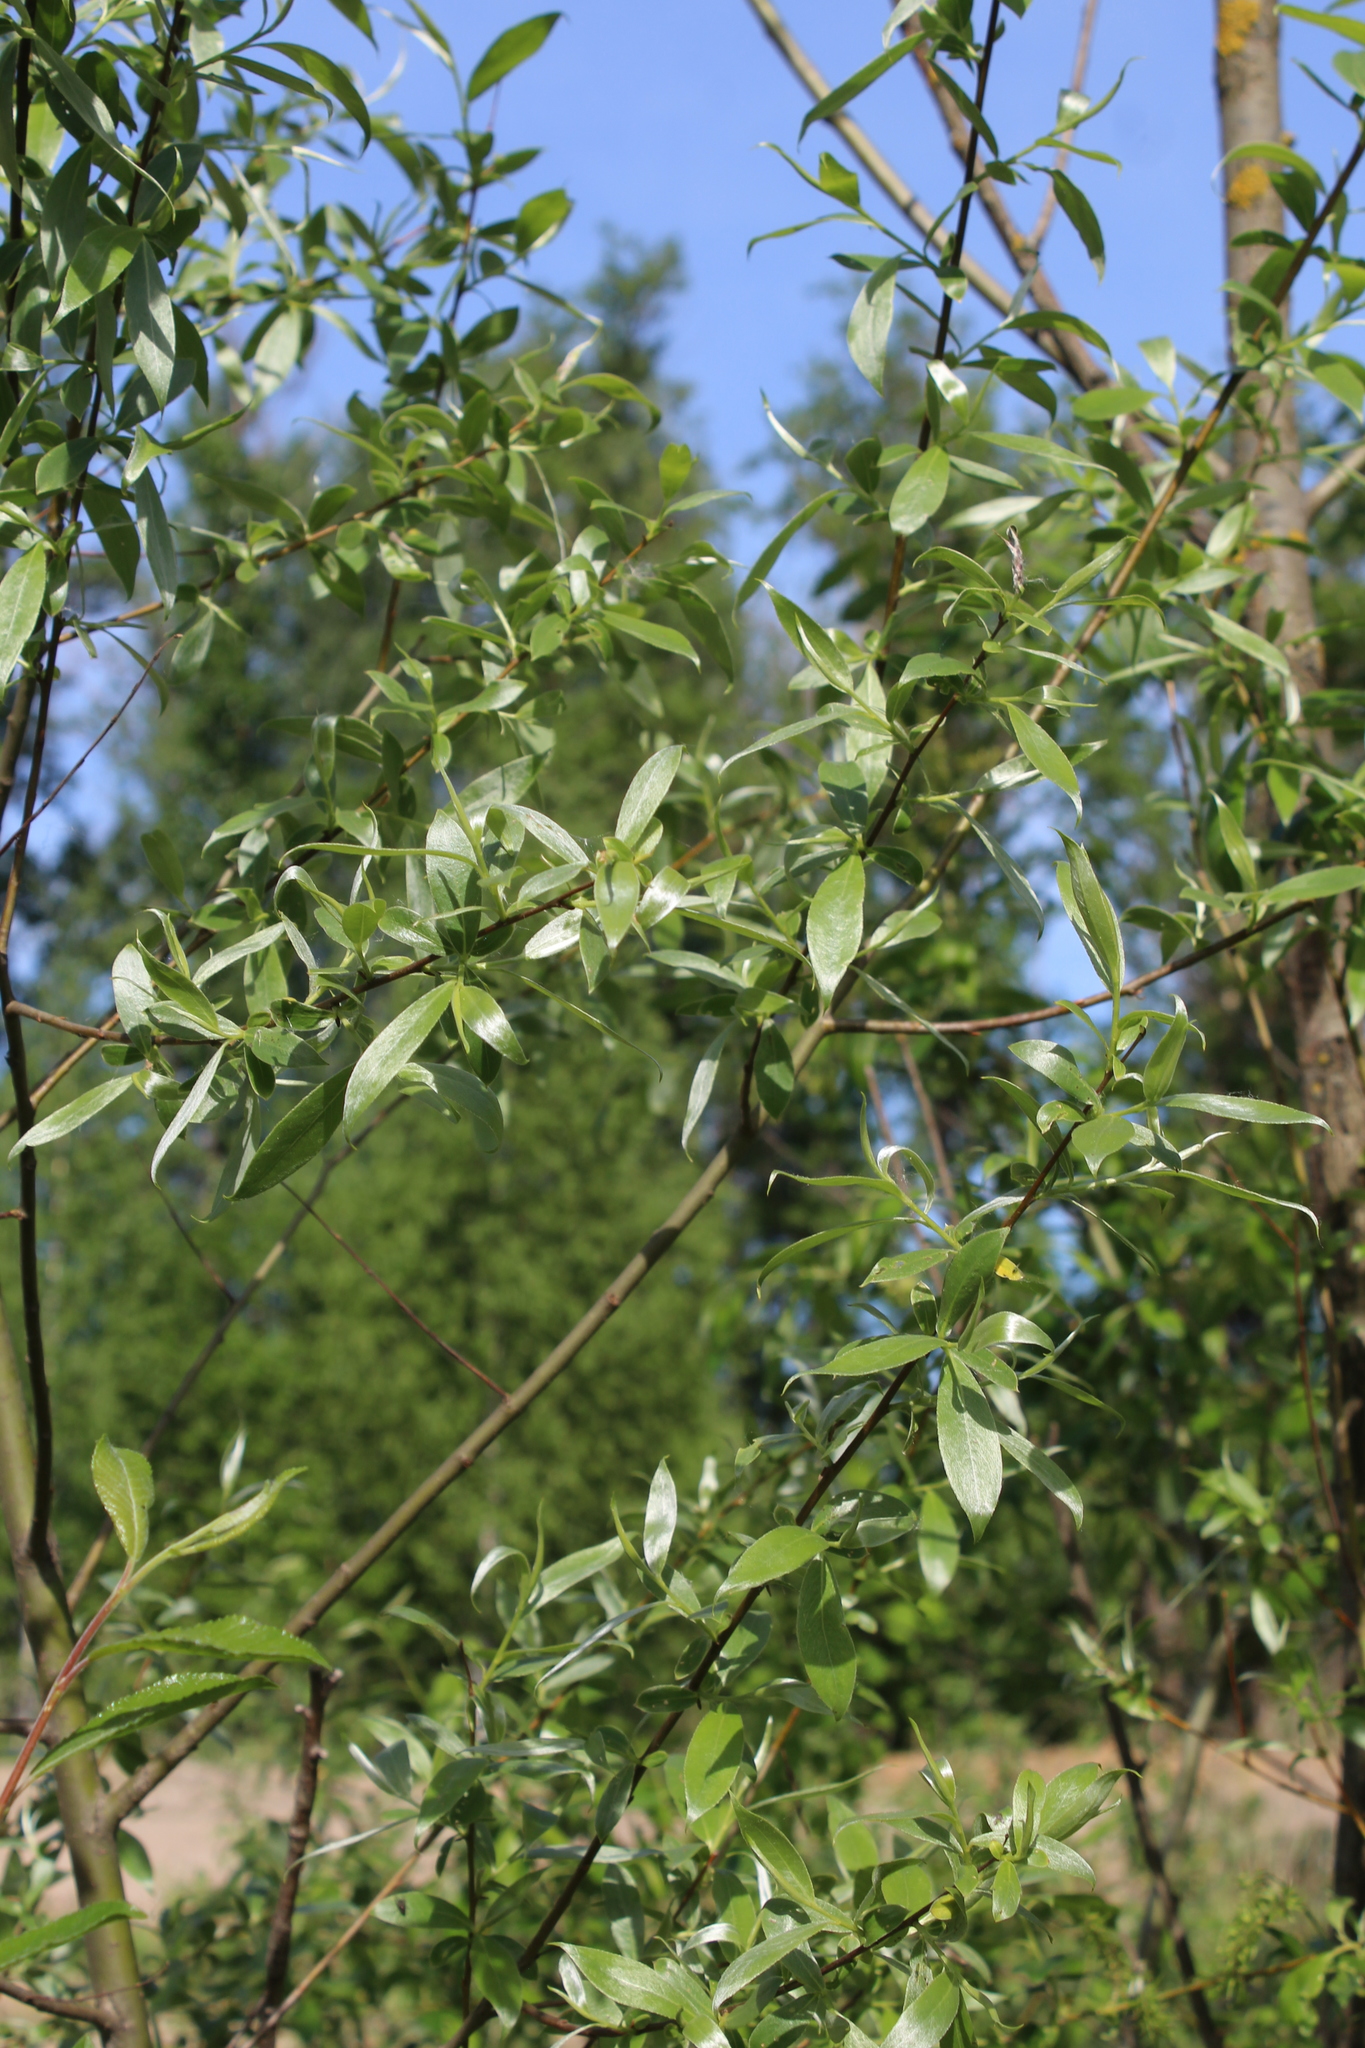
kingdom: Plantae
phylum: Tracheophyta
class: Magnoliopsida
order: Malpighiales
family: Salicaceae
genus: Salix
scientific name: Salix alba
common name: White willow
